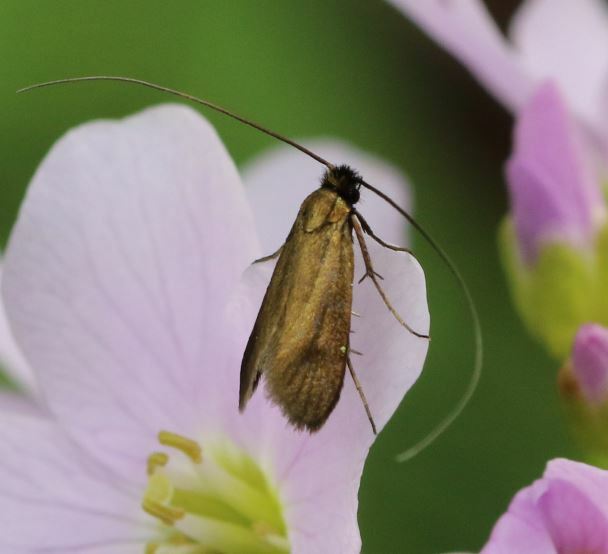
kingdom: Animalia
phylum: Arthropoda
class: Insecta
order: Lepidoptera
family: Adelidae
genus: Cauchas
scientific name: Cauchas rufimitrella
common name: Meadow long-horn
